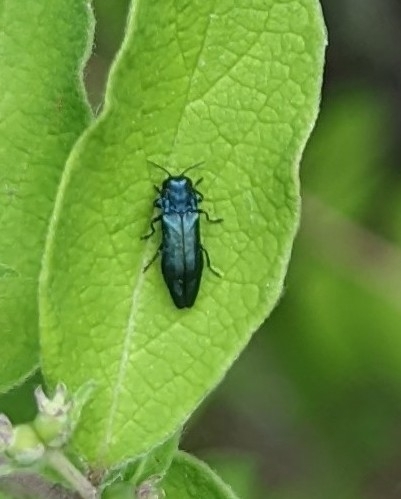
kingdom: Animalia
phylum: Arthropoda
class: Insecta
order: Coleoptera
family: Buprestidae
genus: Agrilus
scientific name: Agrilus cyanescens
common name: Bluish borer beetle
